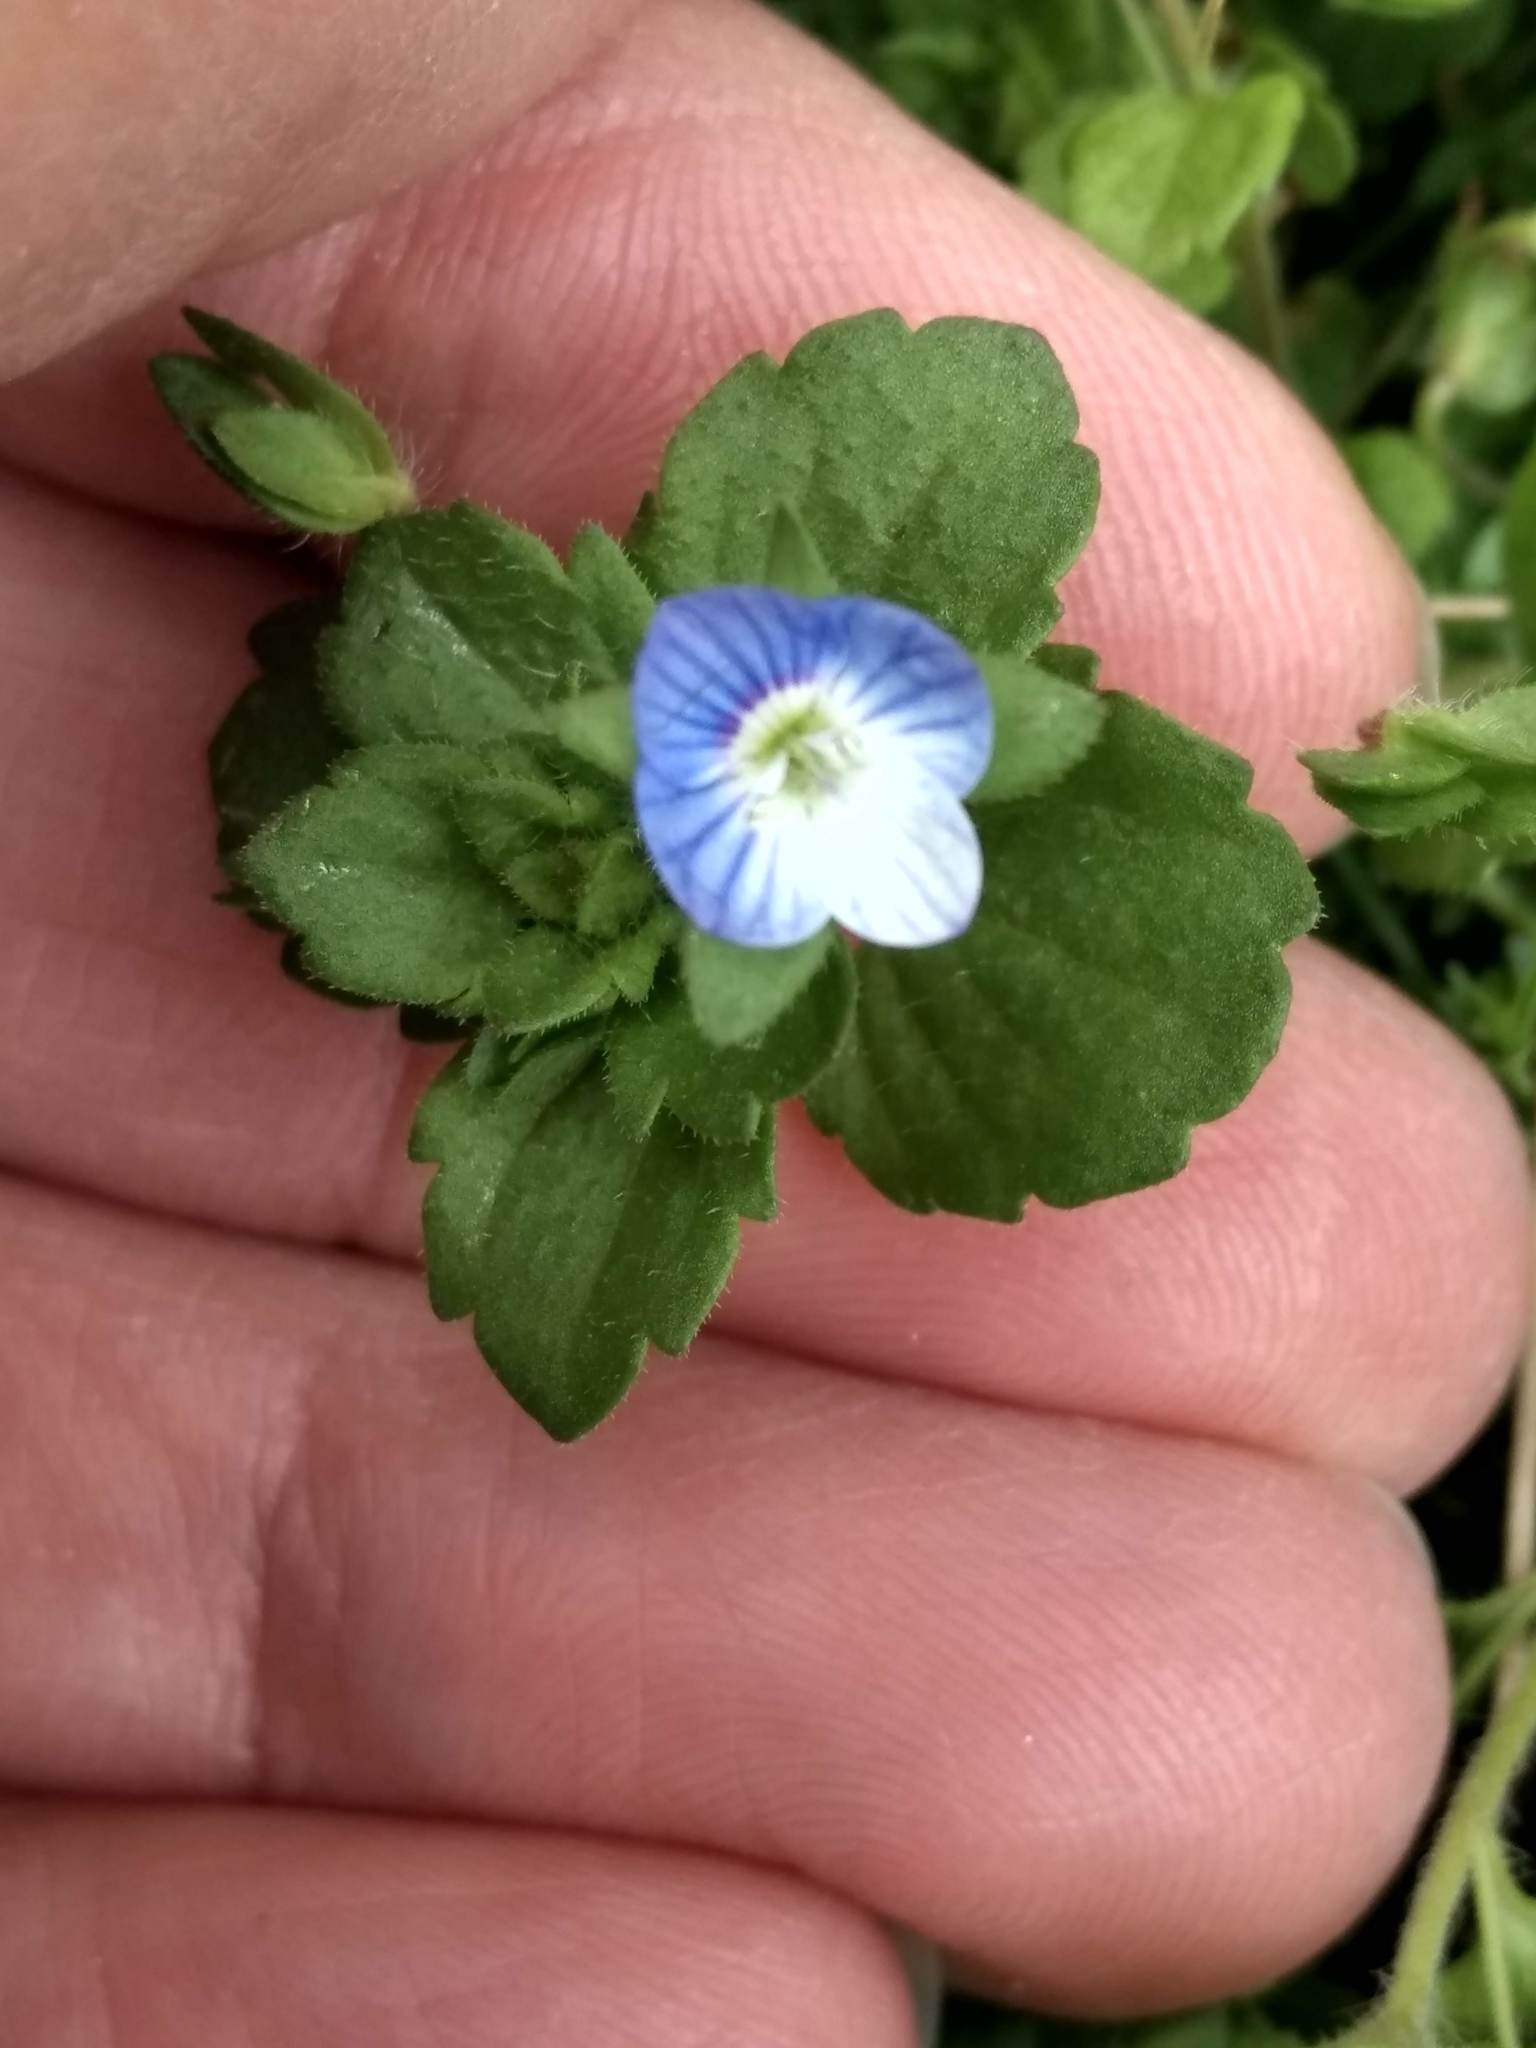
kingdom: Plantae
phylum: Tracheophyta
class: Magnoliopsida
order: Lamiales
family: Plantaginaceae
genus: Veronica
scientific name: Veronica persica
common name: Common field-speedwell
